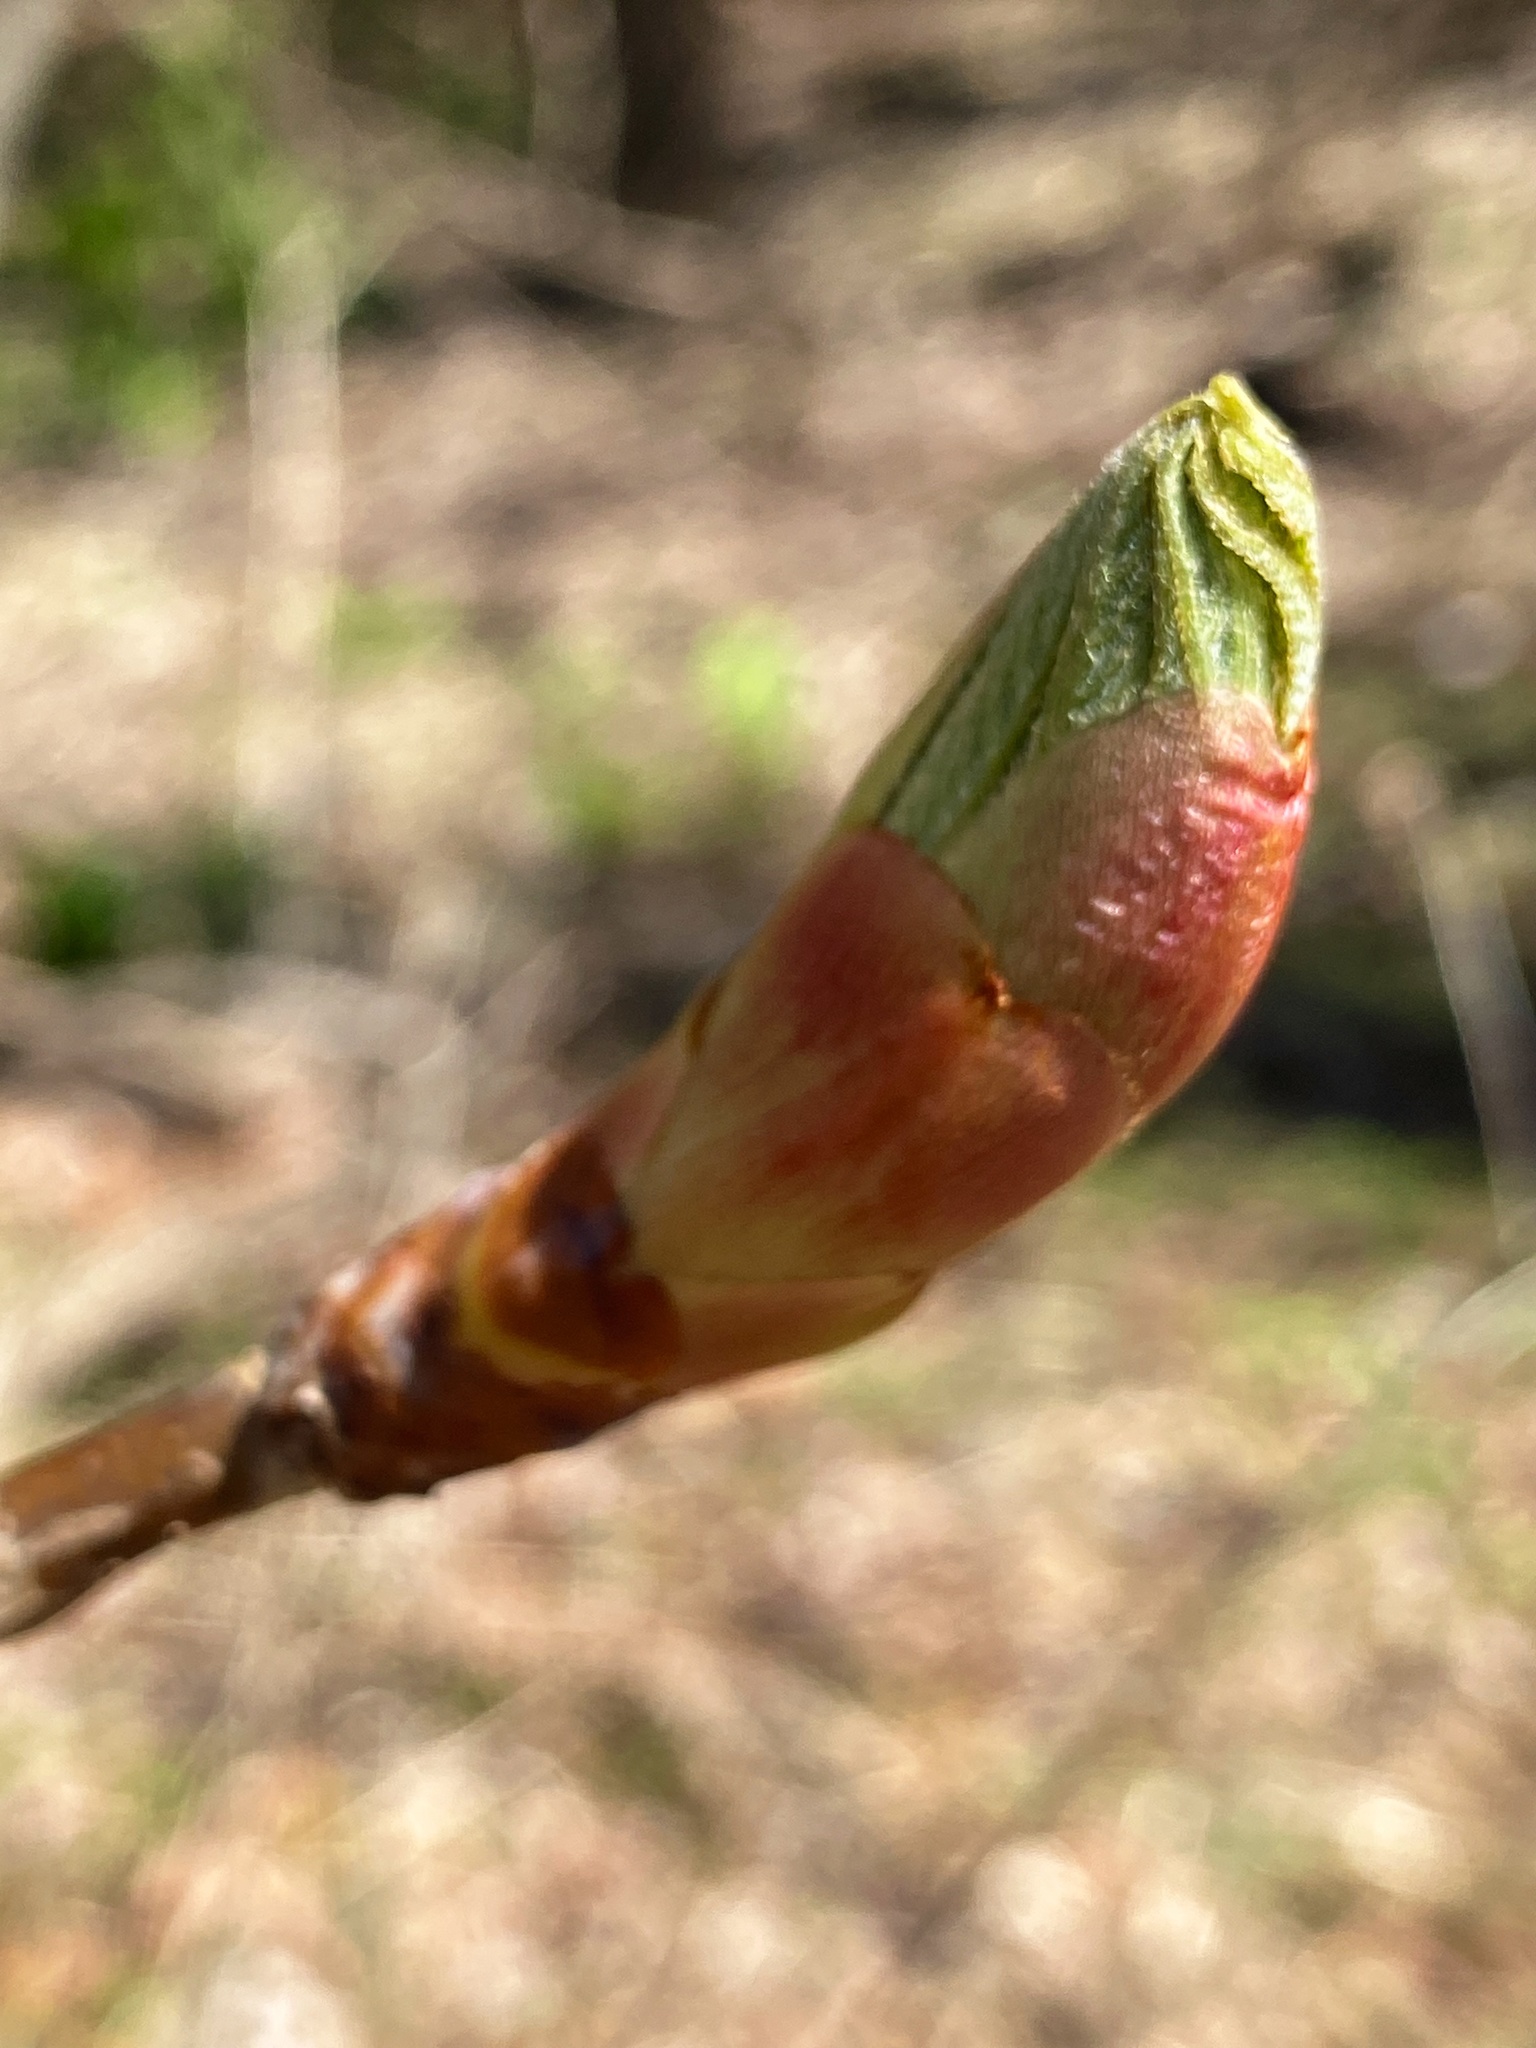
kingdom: Plantae
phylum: Tracheophyta
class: Magnoliopsida
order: Sapindales
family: Sapindaceae
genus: Aesculus
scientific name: Aesculus flava
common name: Yellow buckeye
